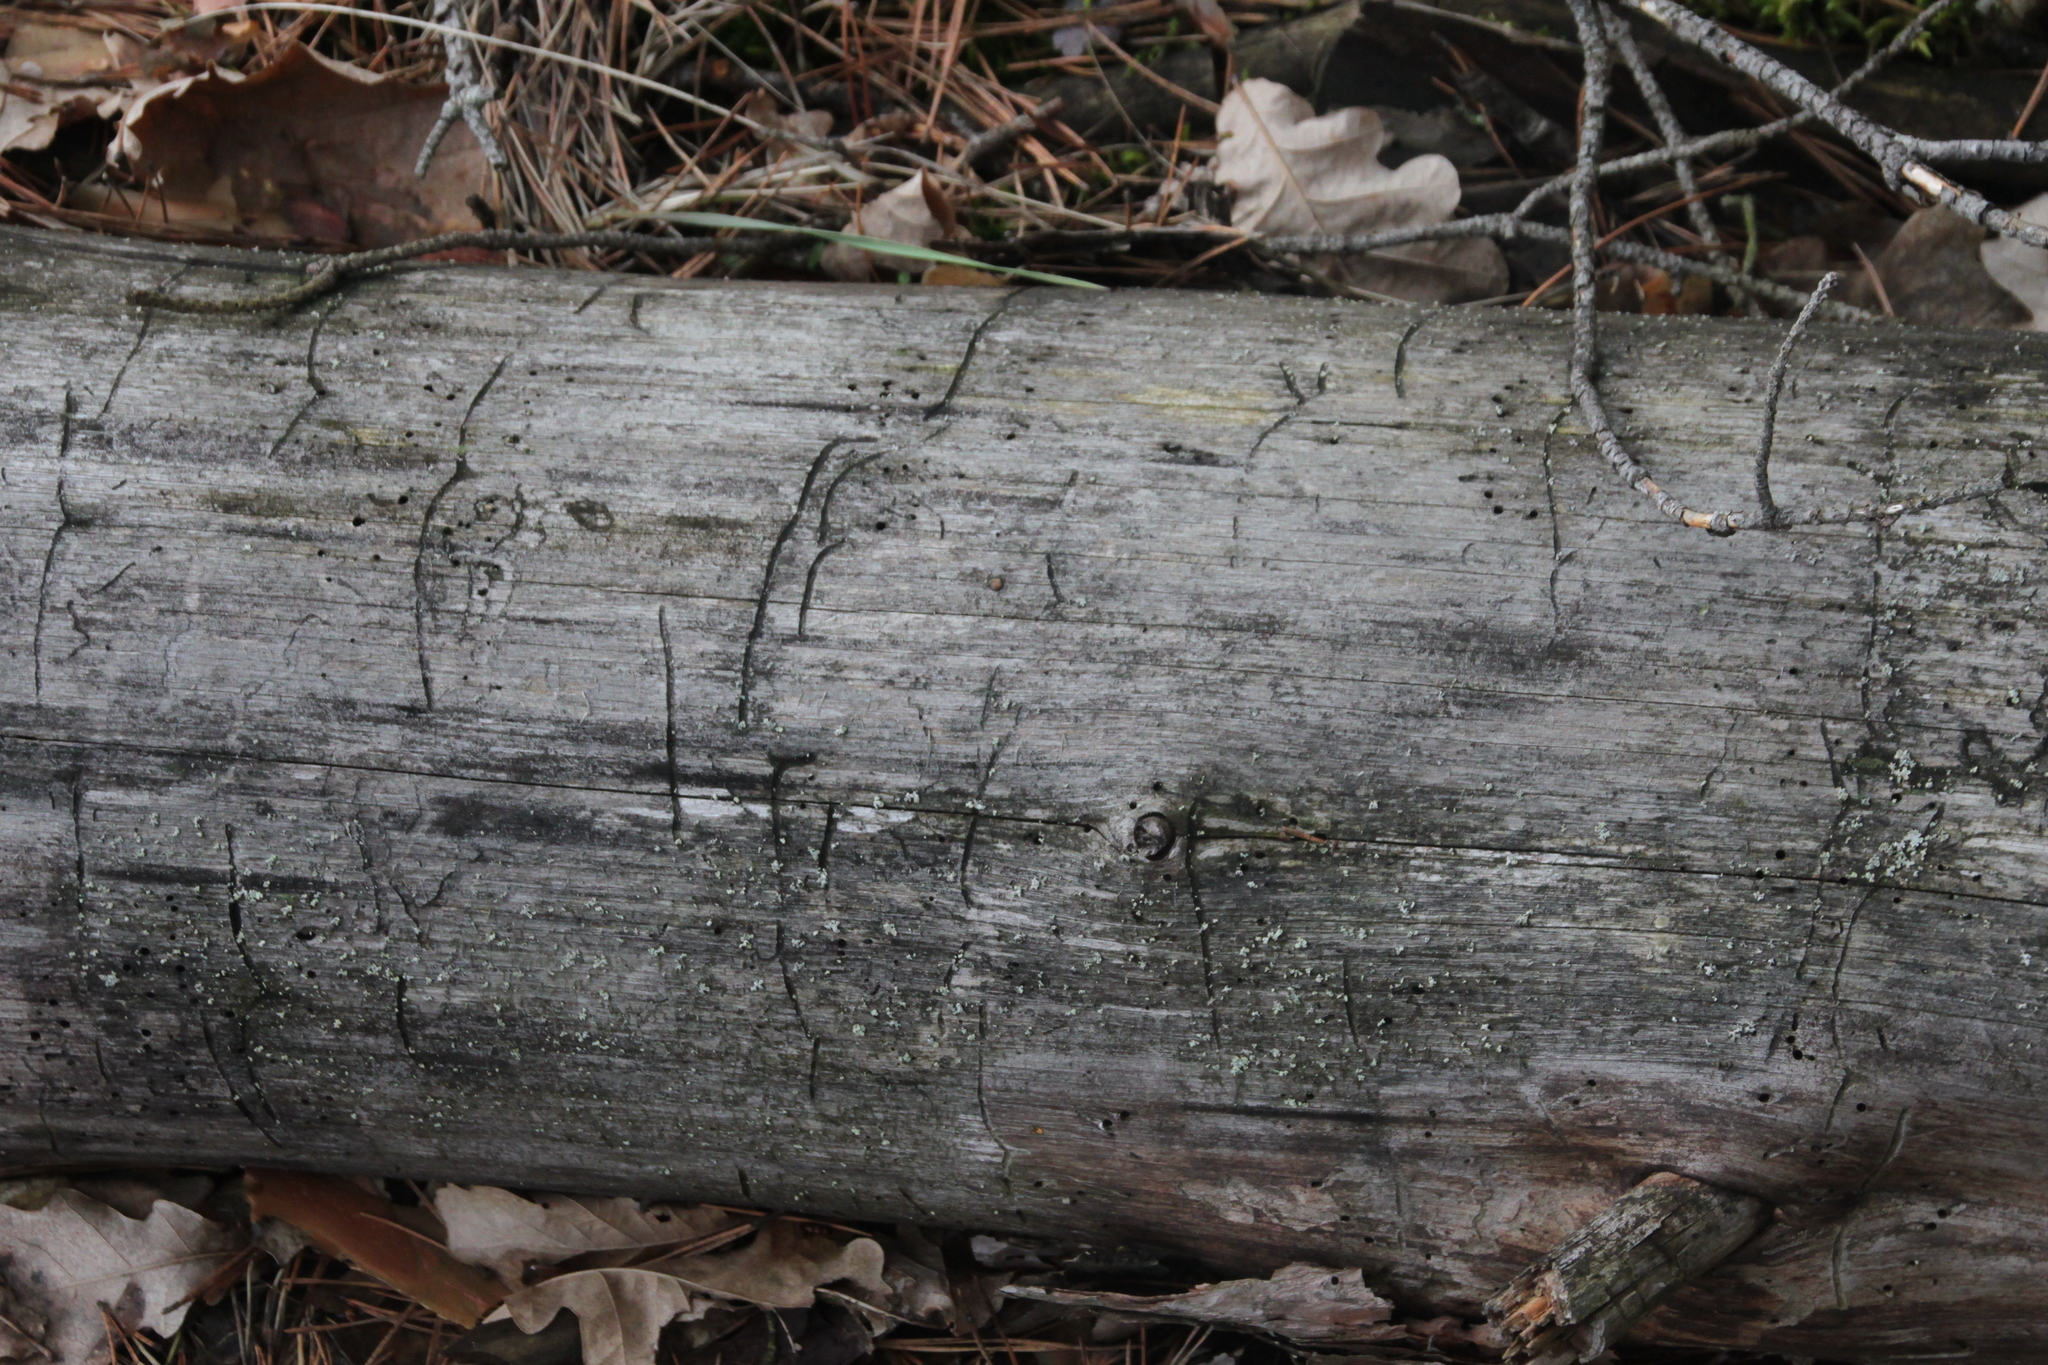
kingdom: Animalia
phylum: Arthropoda
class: Insecta
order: Coleoptera
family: Curculionidae
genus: Tomicus
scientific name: Tomicus minor
